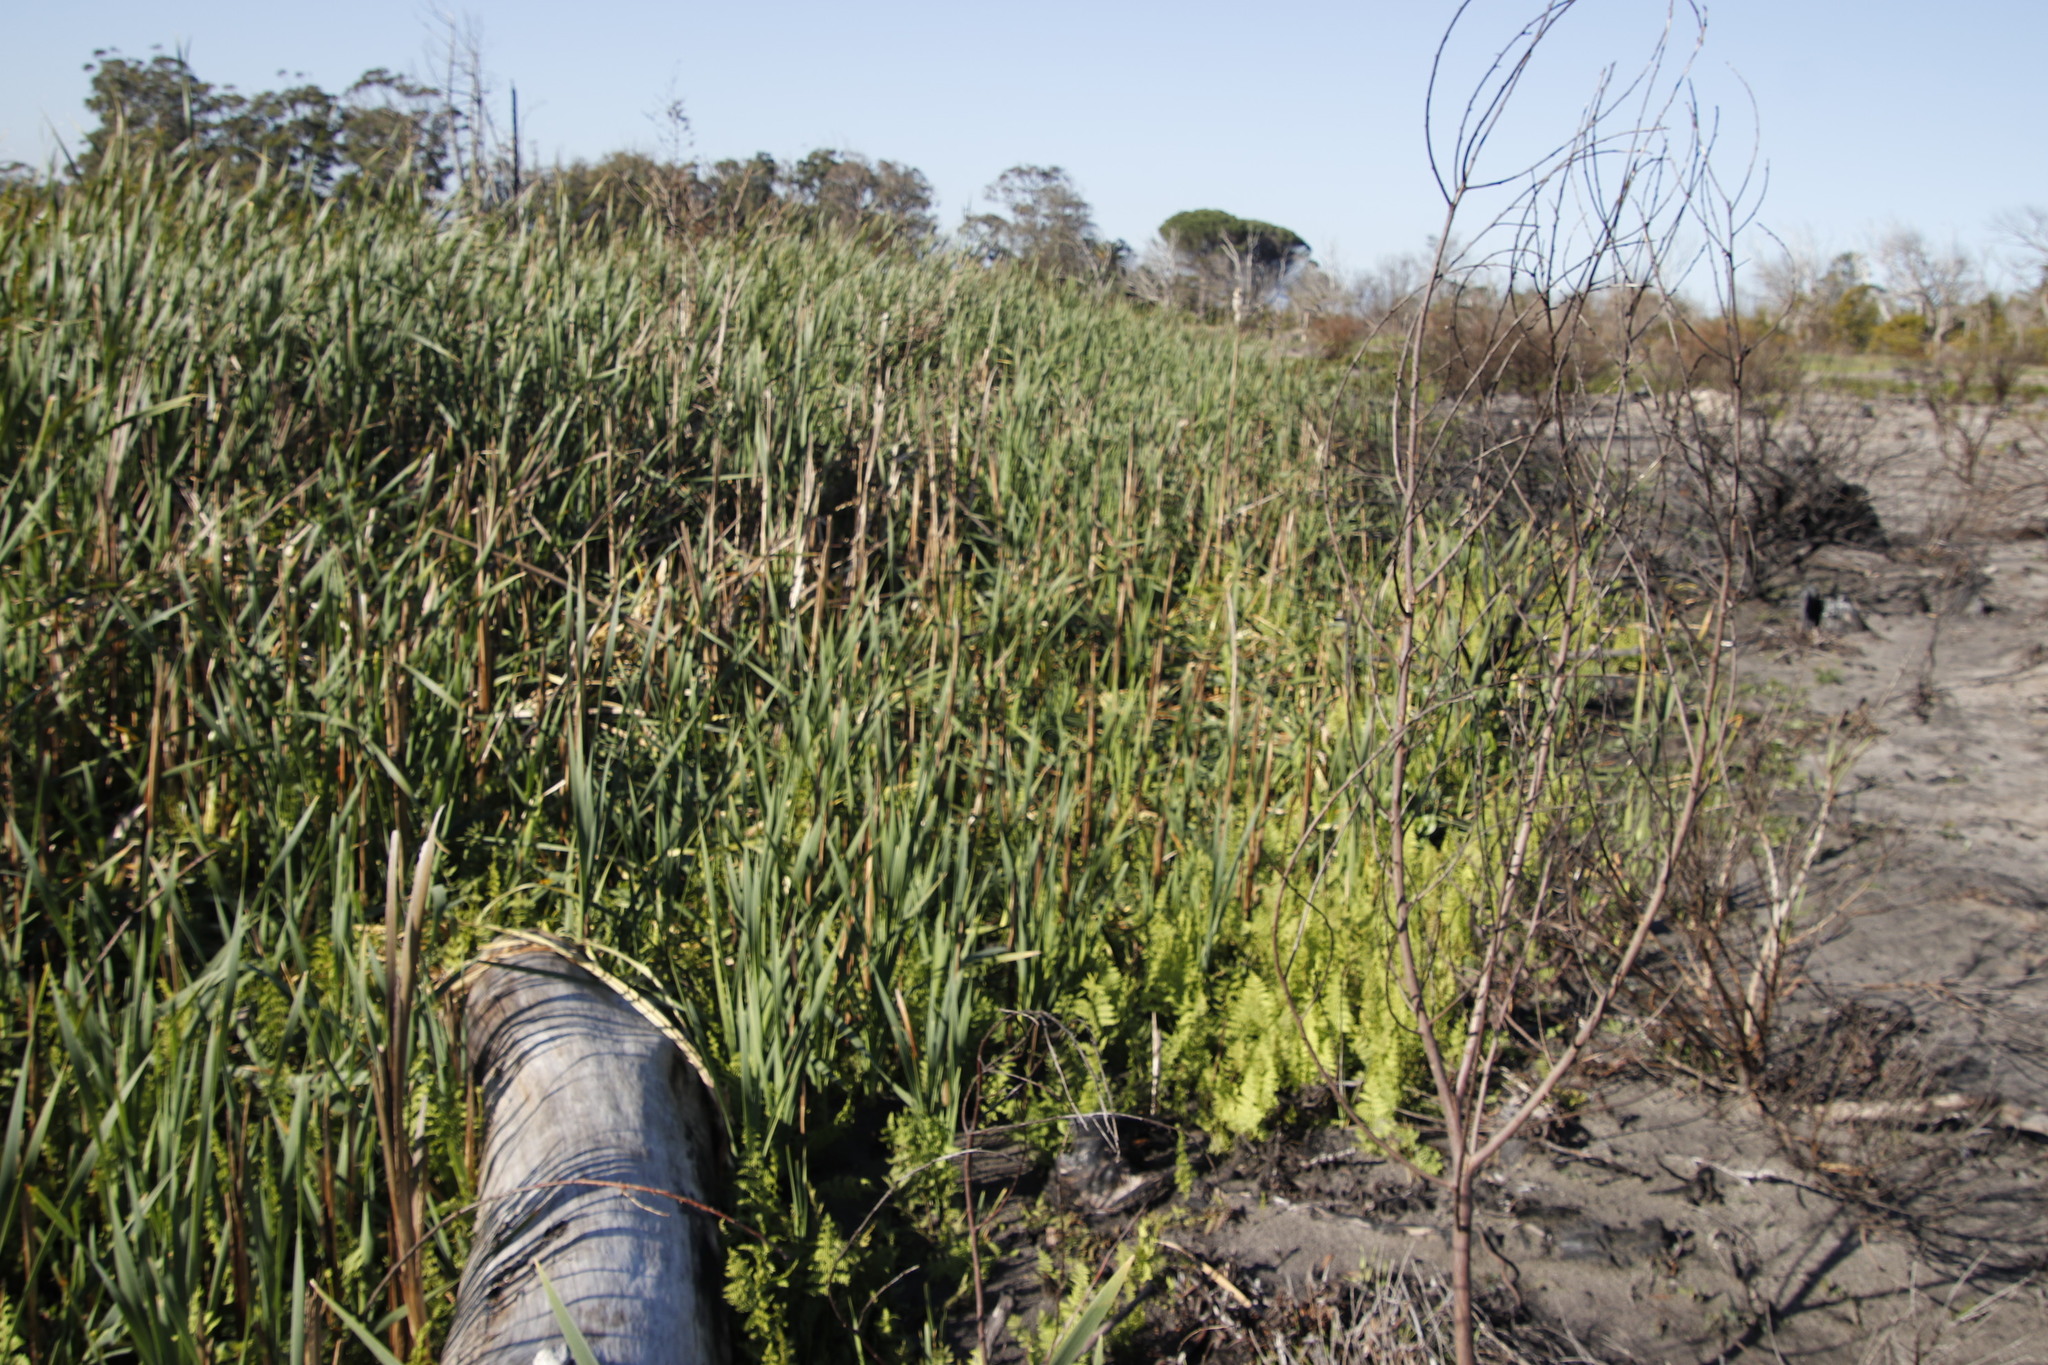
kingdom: Plantae
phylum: Tracheophyta
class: Liliopsida
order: Poales
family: Typhaceae
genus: Typha
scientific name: Typha capensis
